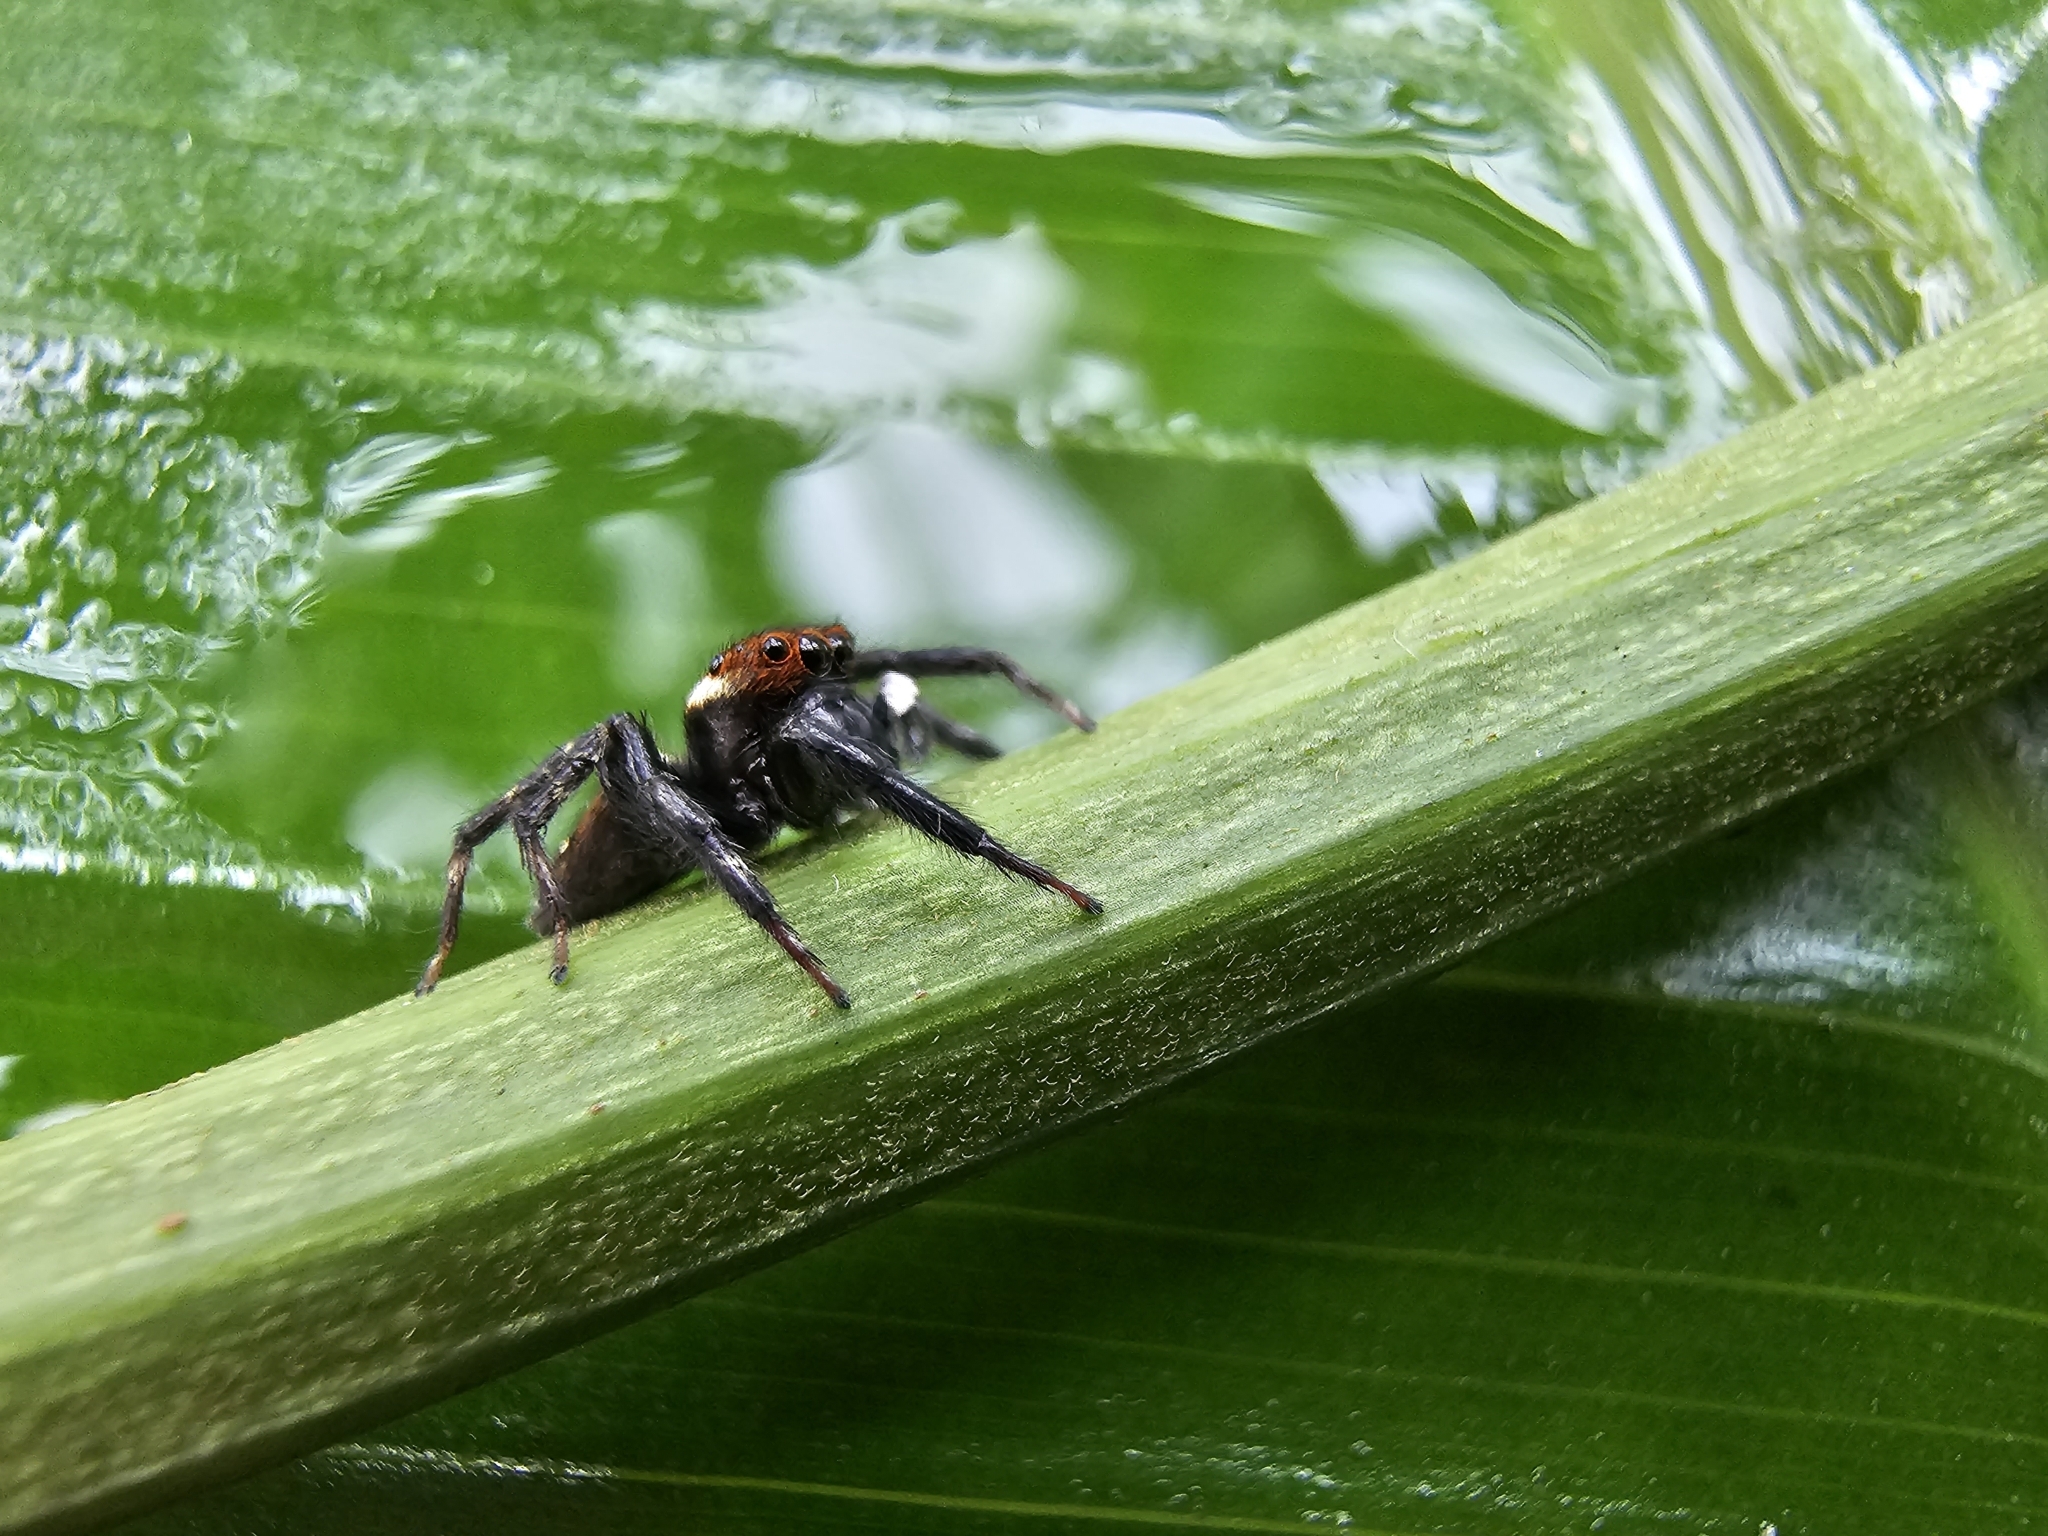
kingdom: Animalia
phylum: Arthropoda
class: Arachnida
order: Araneae
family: Salticidae
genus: Hasarius
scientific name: Hasarius adansoni
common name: Jumping spider
